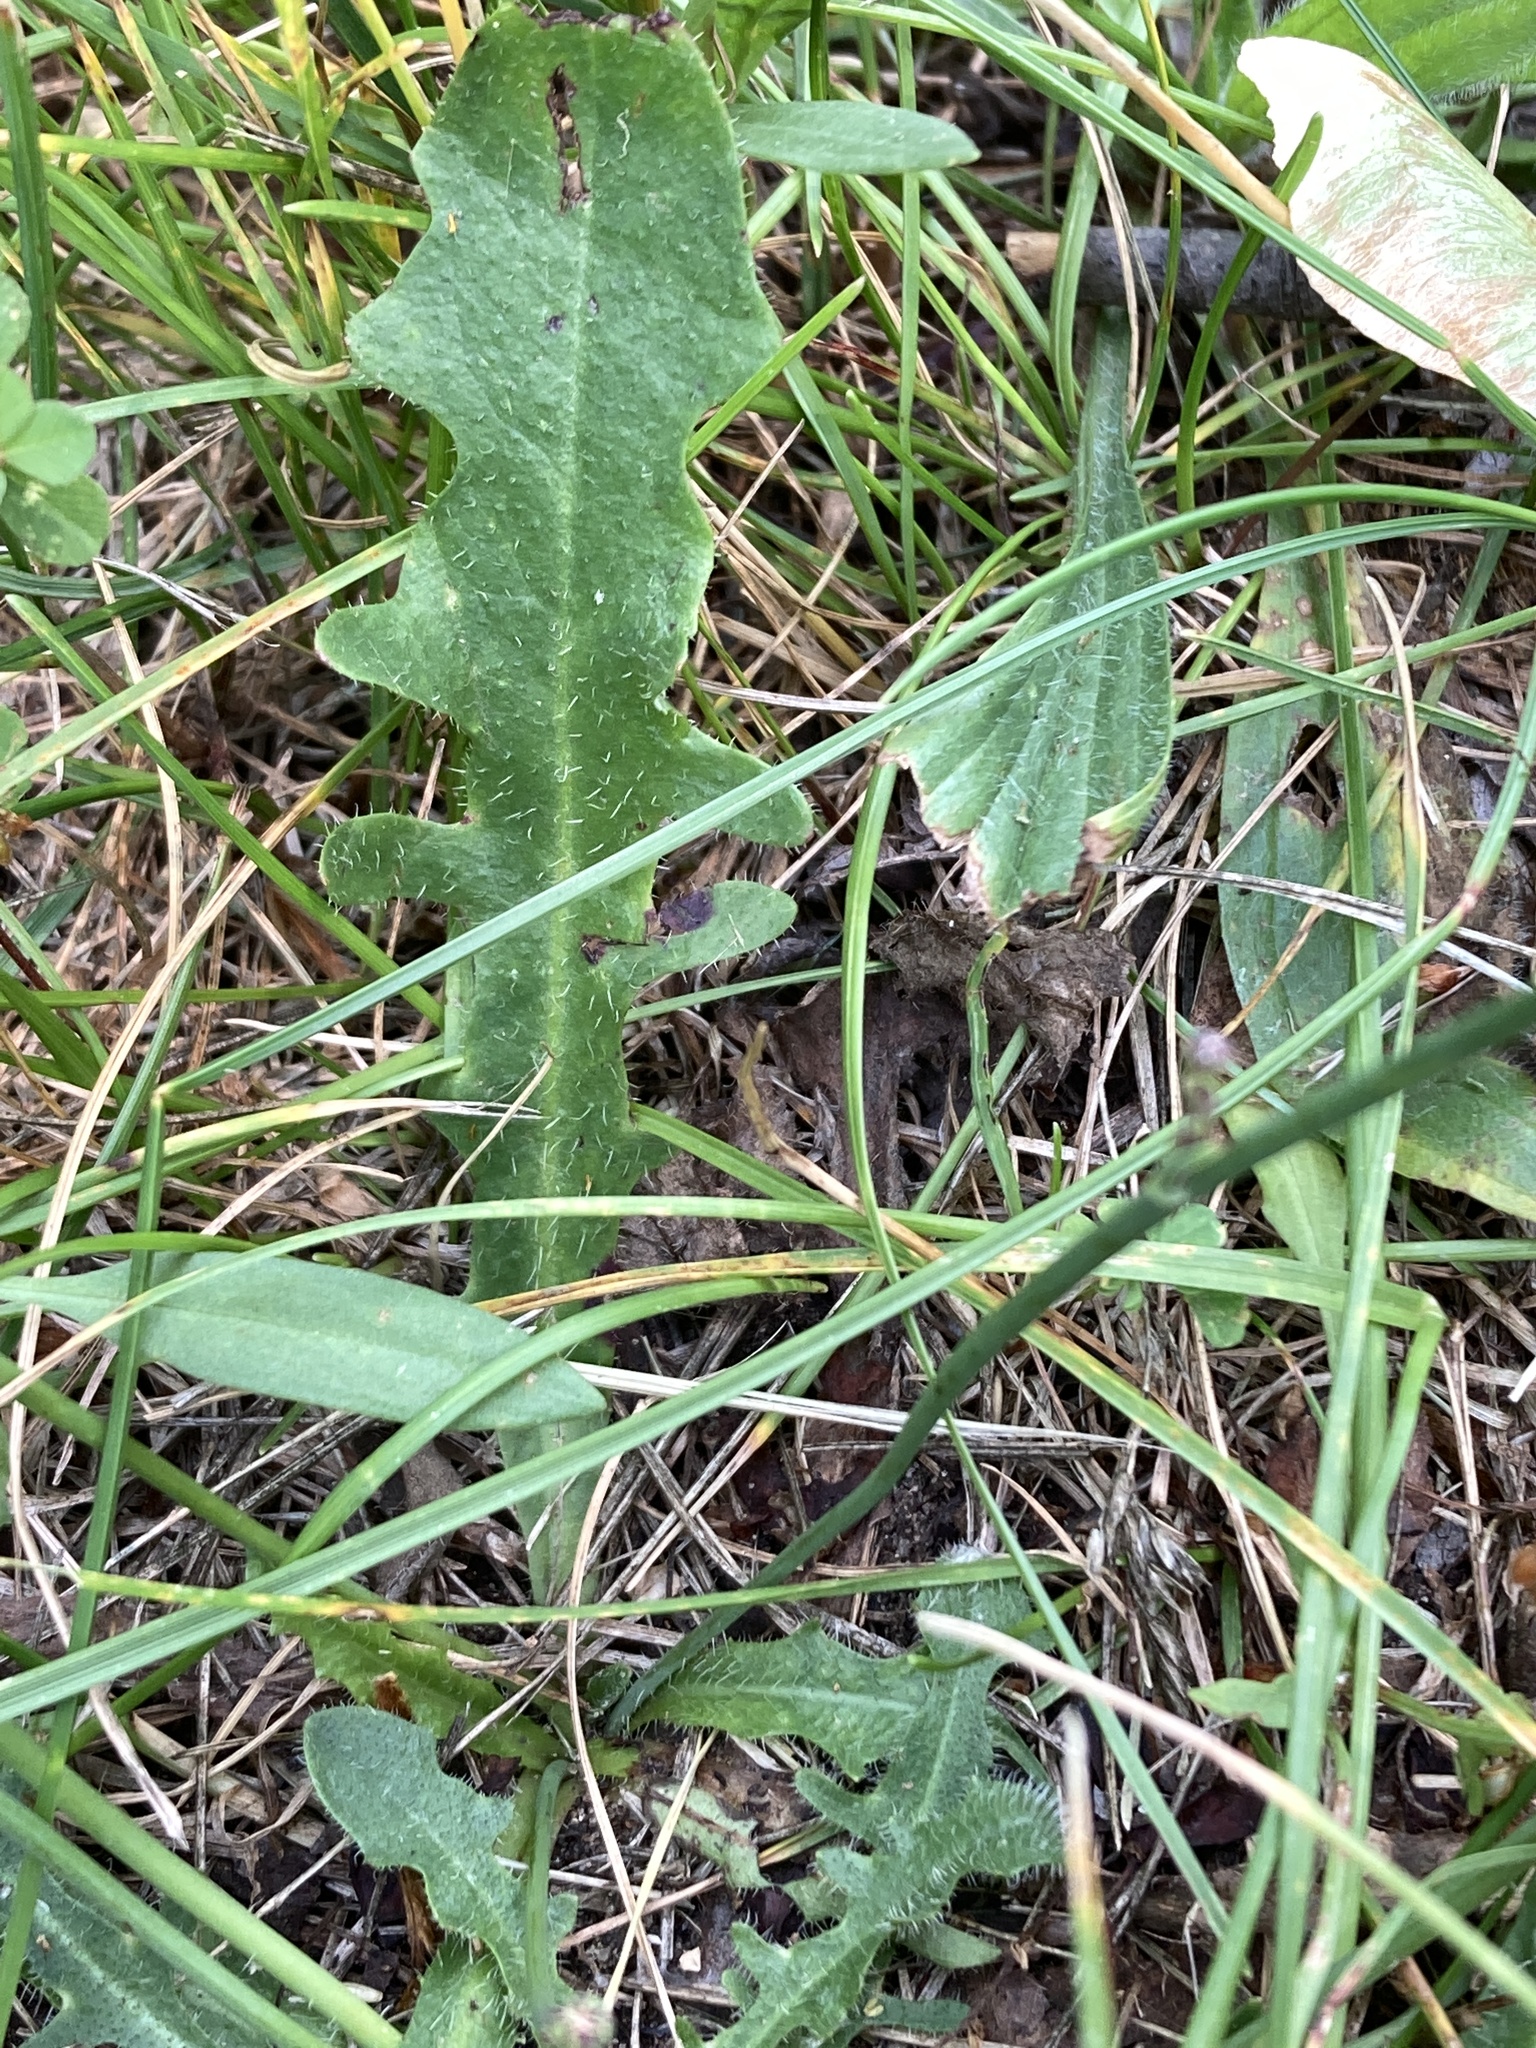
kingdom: Plantae
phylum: Tracheophyta
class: Magnoliopsida
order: Asterales
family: Asteraceae
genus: Hypochaeris
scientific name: Hypochaeris radicata
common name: Flatweed
